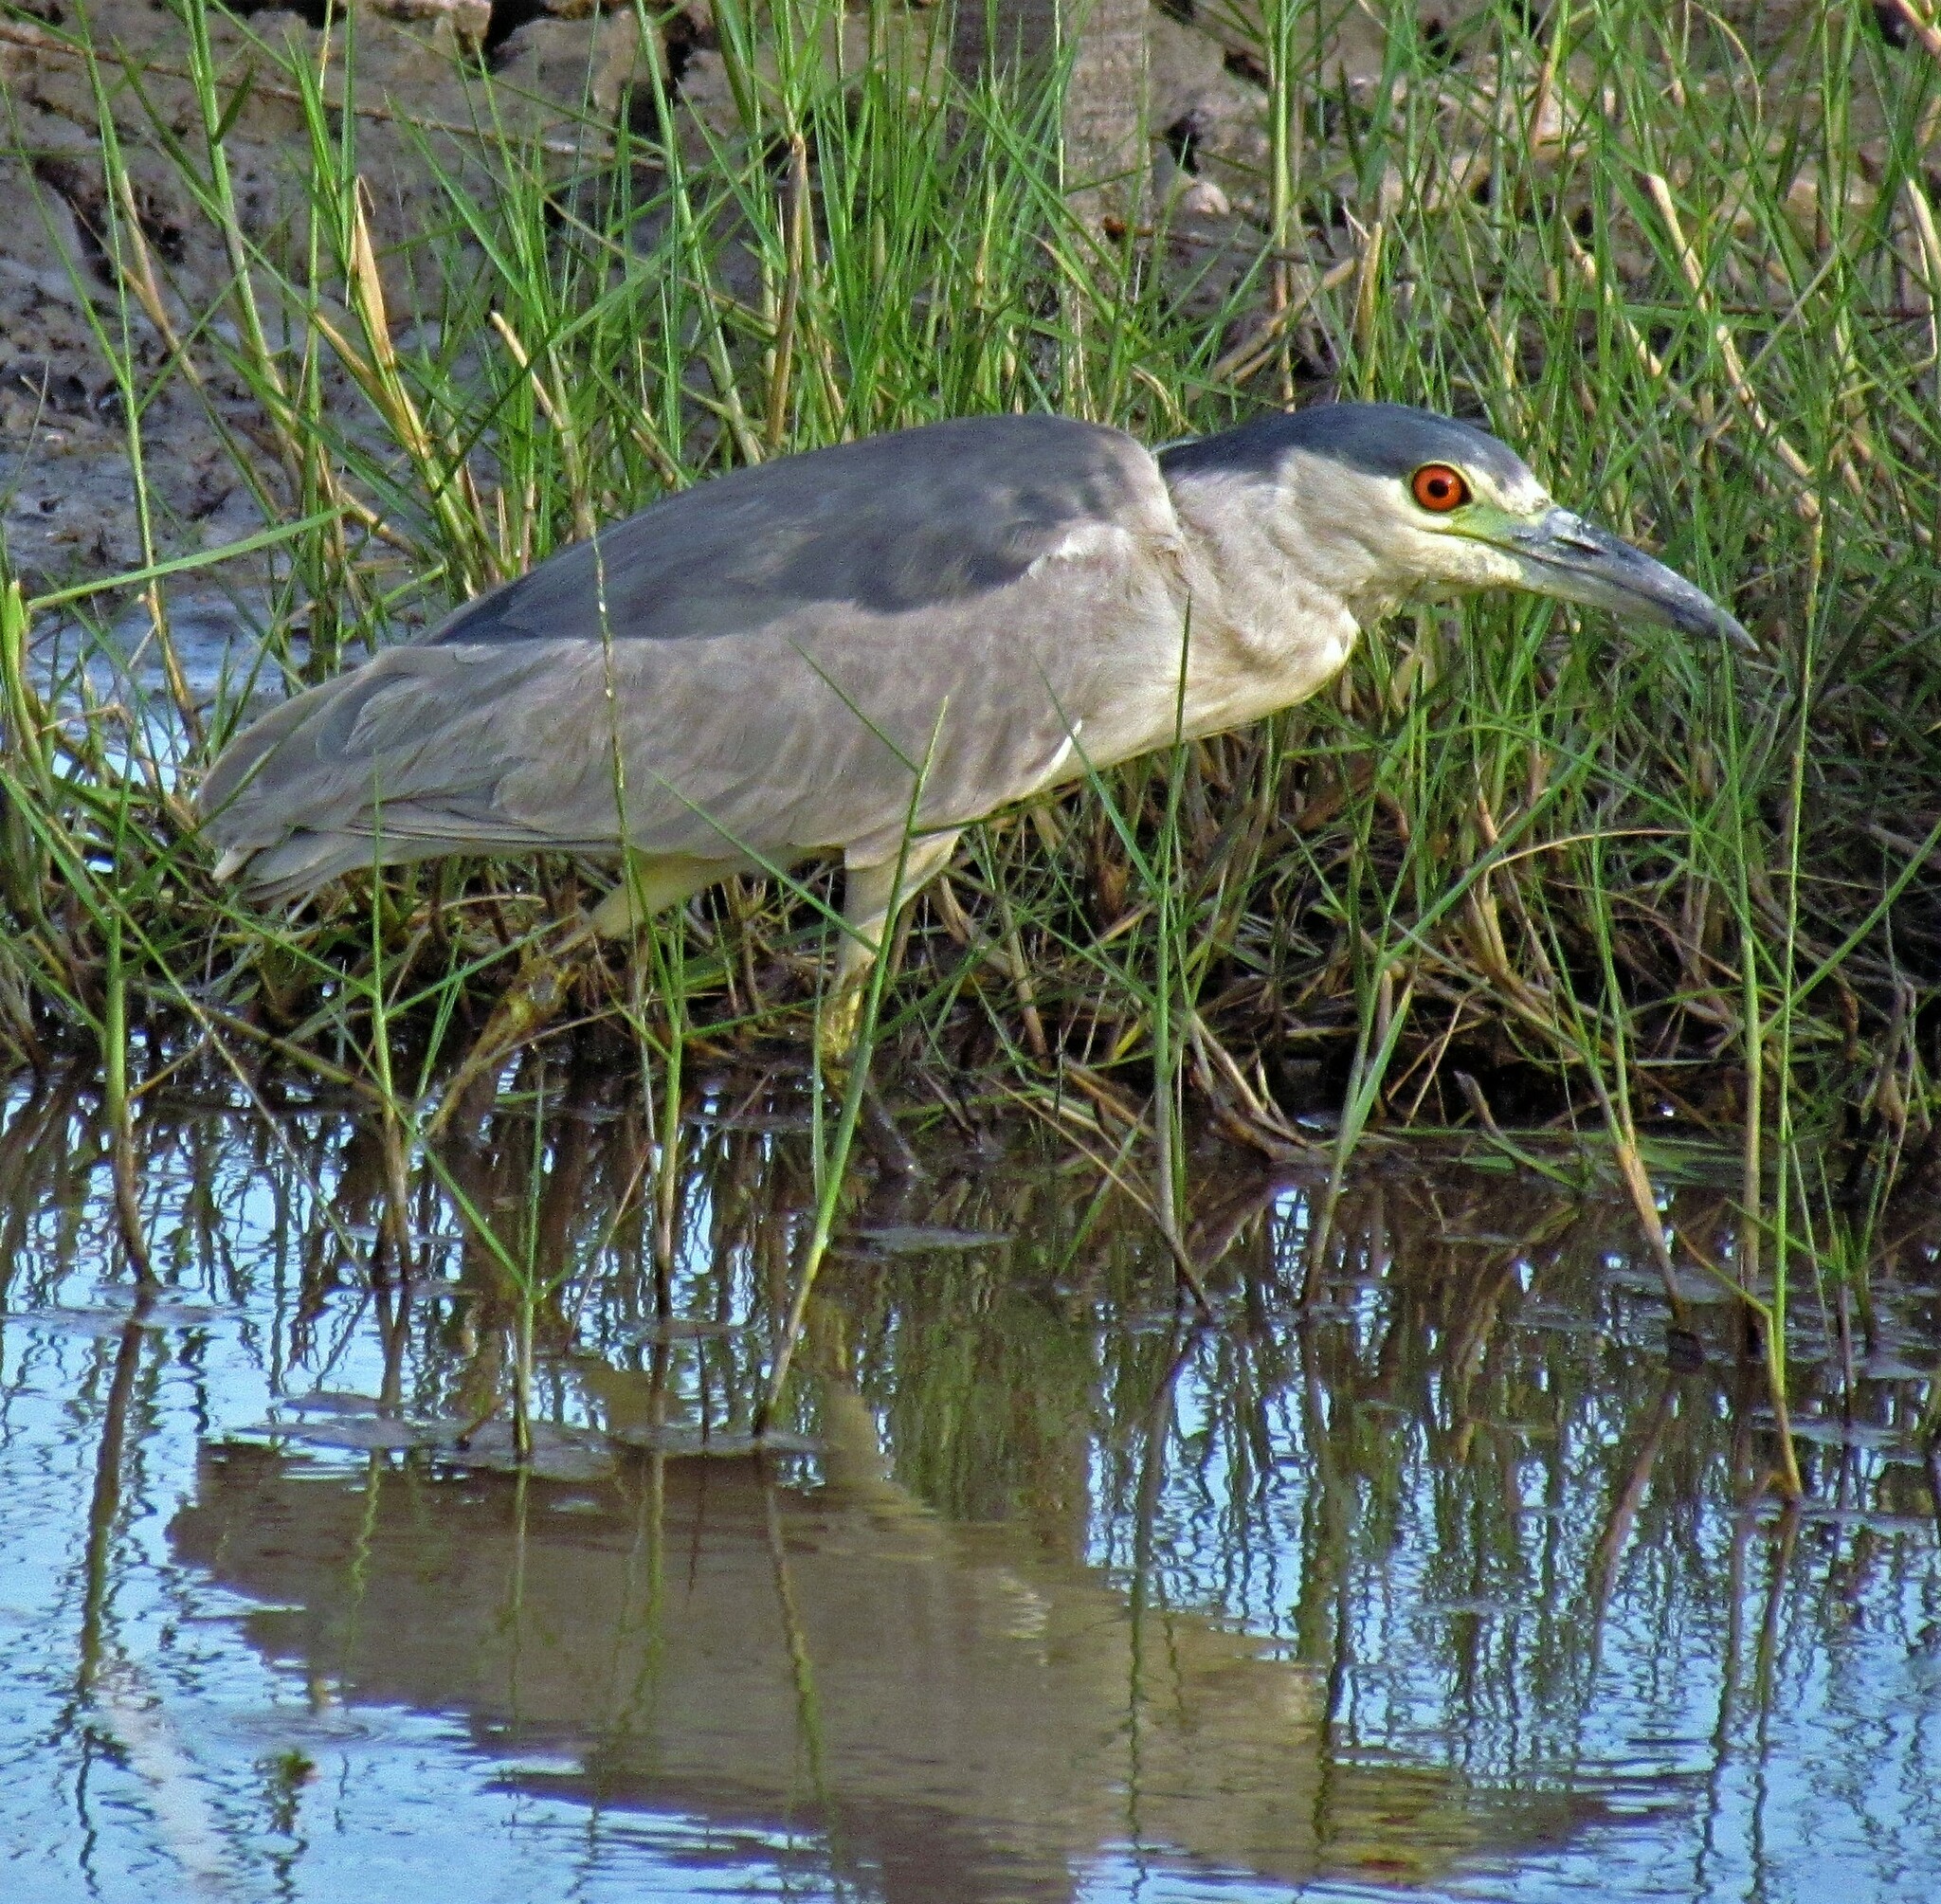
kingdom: Animalia
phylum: Chordata
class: Aves
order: Pelecaniformes
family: Ardeidae
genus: Nycticorax
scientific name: Nycticorax nycticorax
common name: Black-crowned night heron
